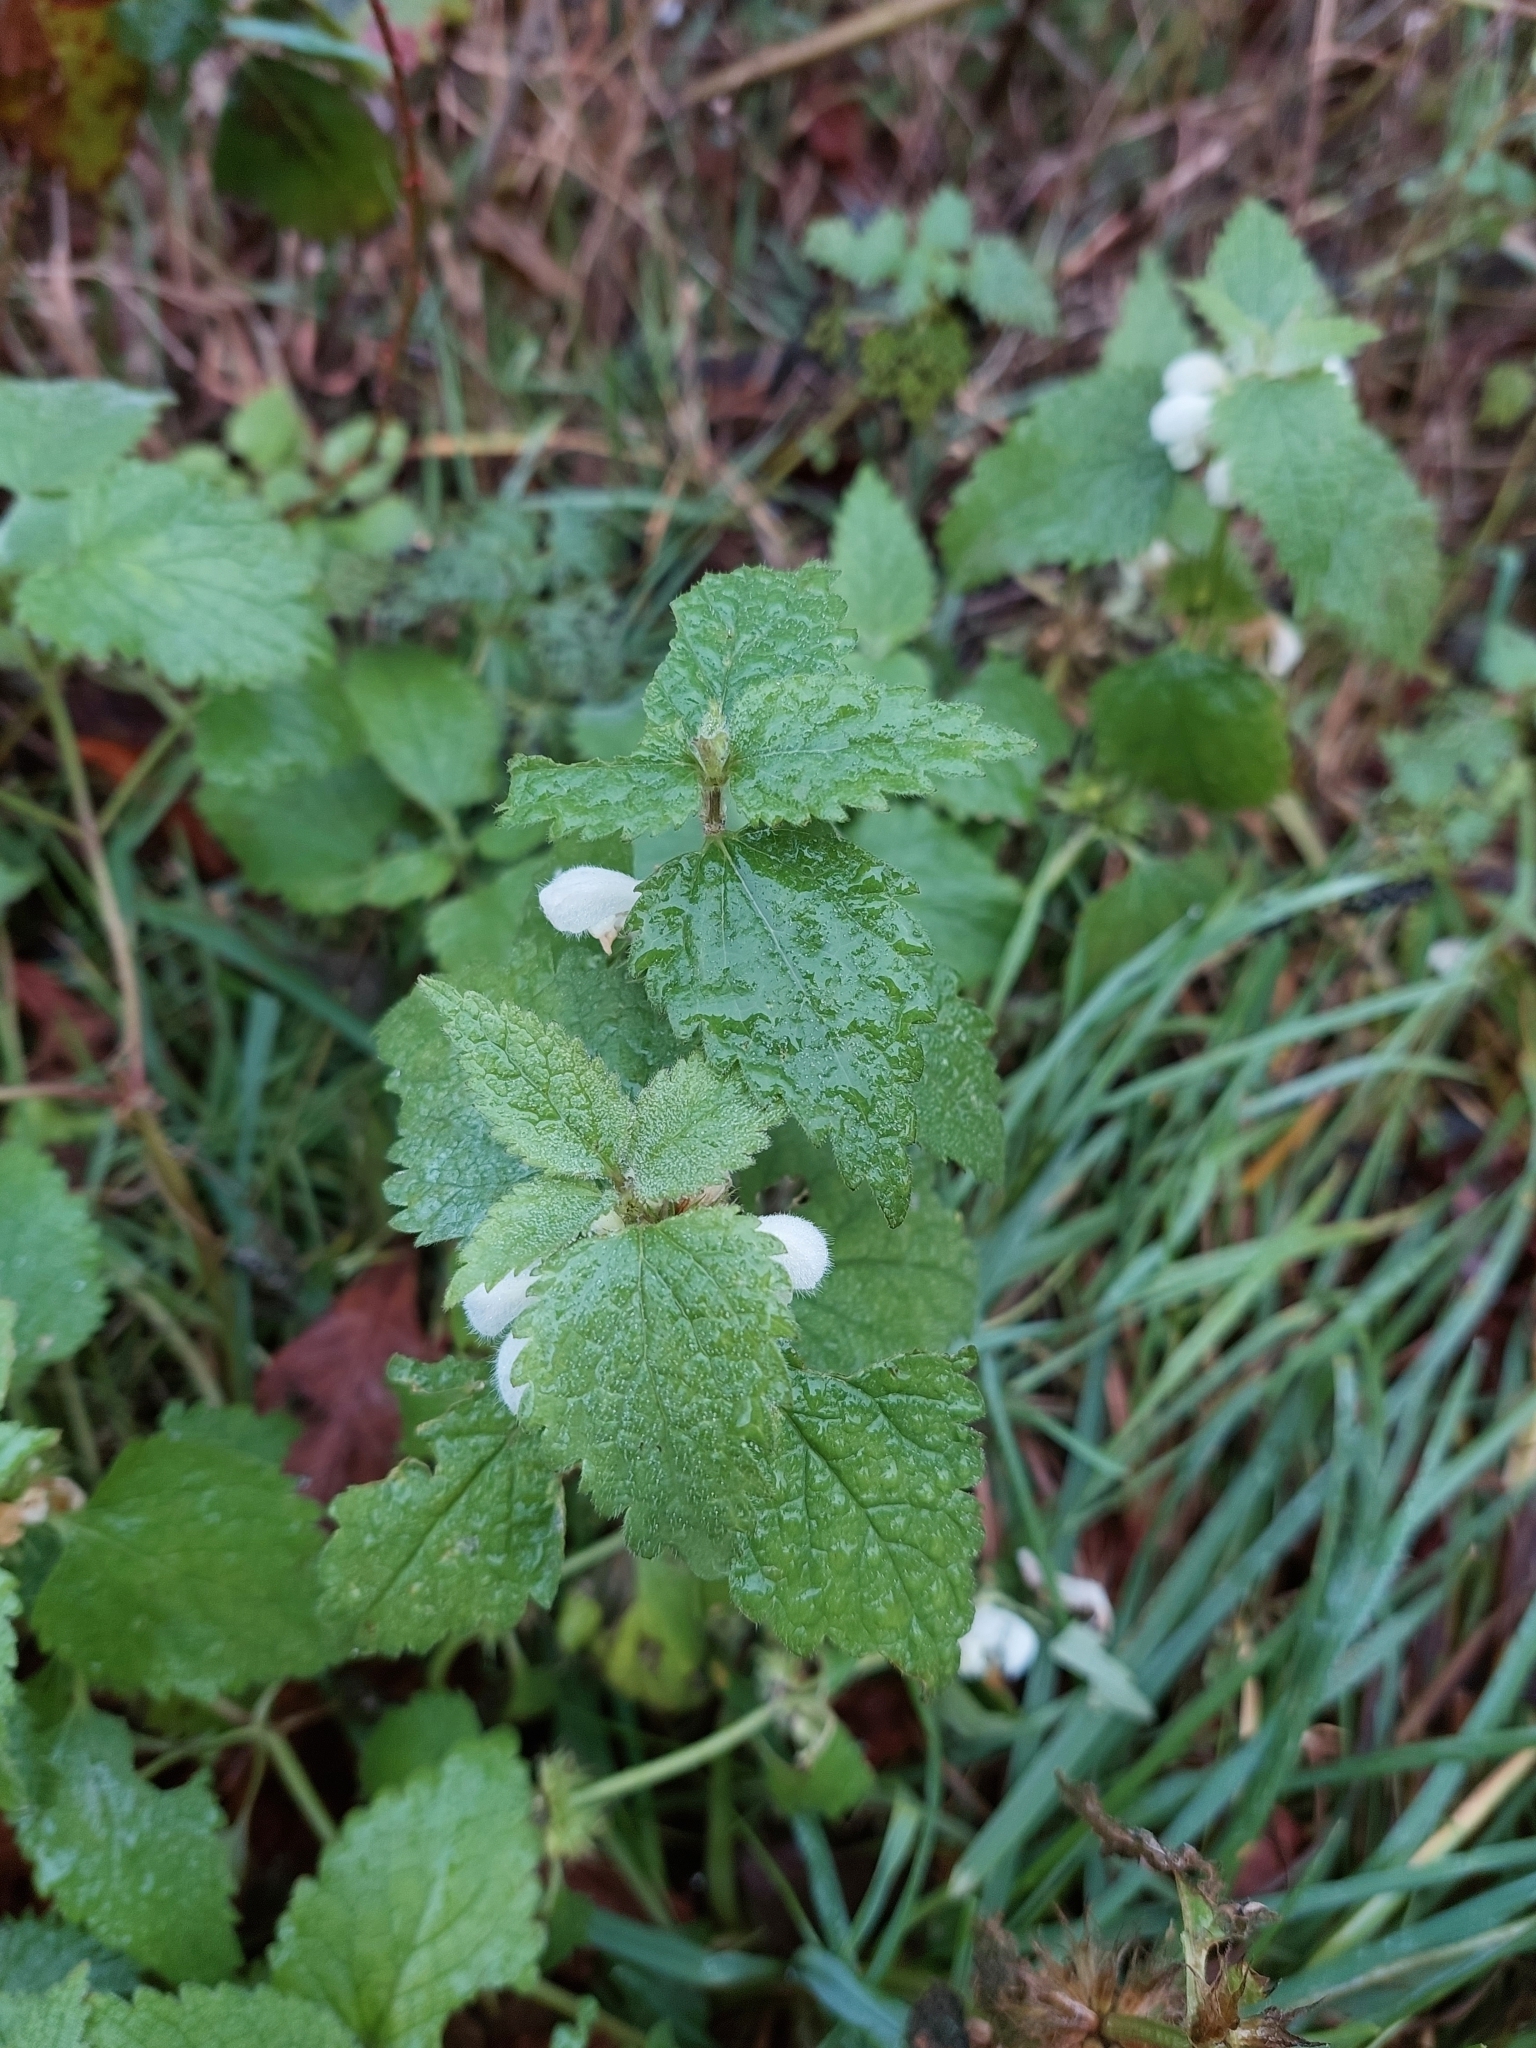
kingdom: Plantae
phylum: Tracheophyta
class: Magnoliopsida
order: Lamiales
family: Lamiaceae
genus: Lamium
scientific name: Lamium album
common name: White dead-nettle
